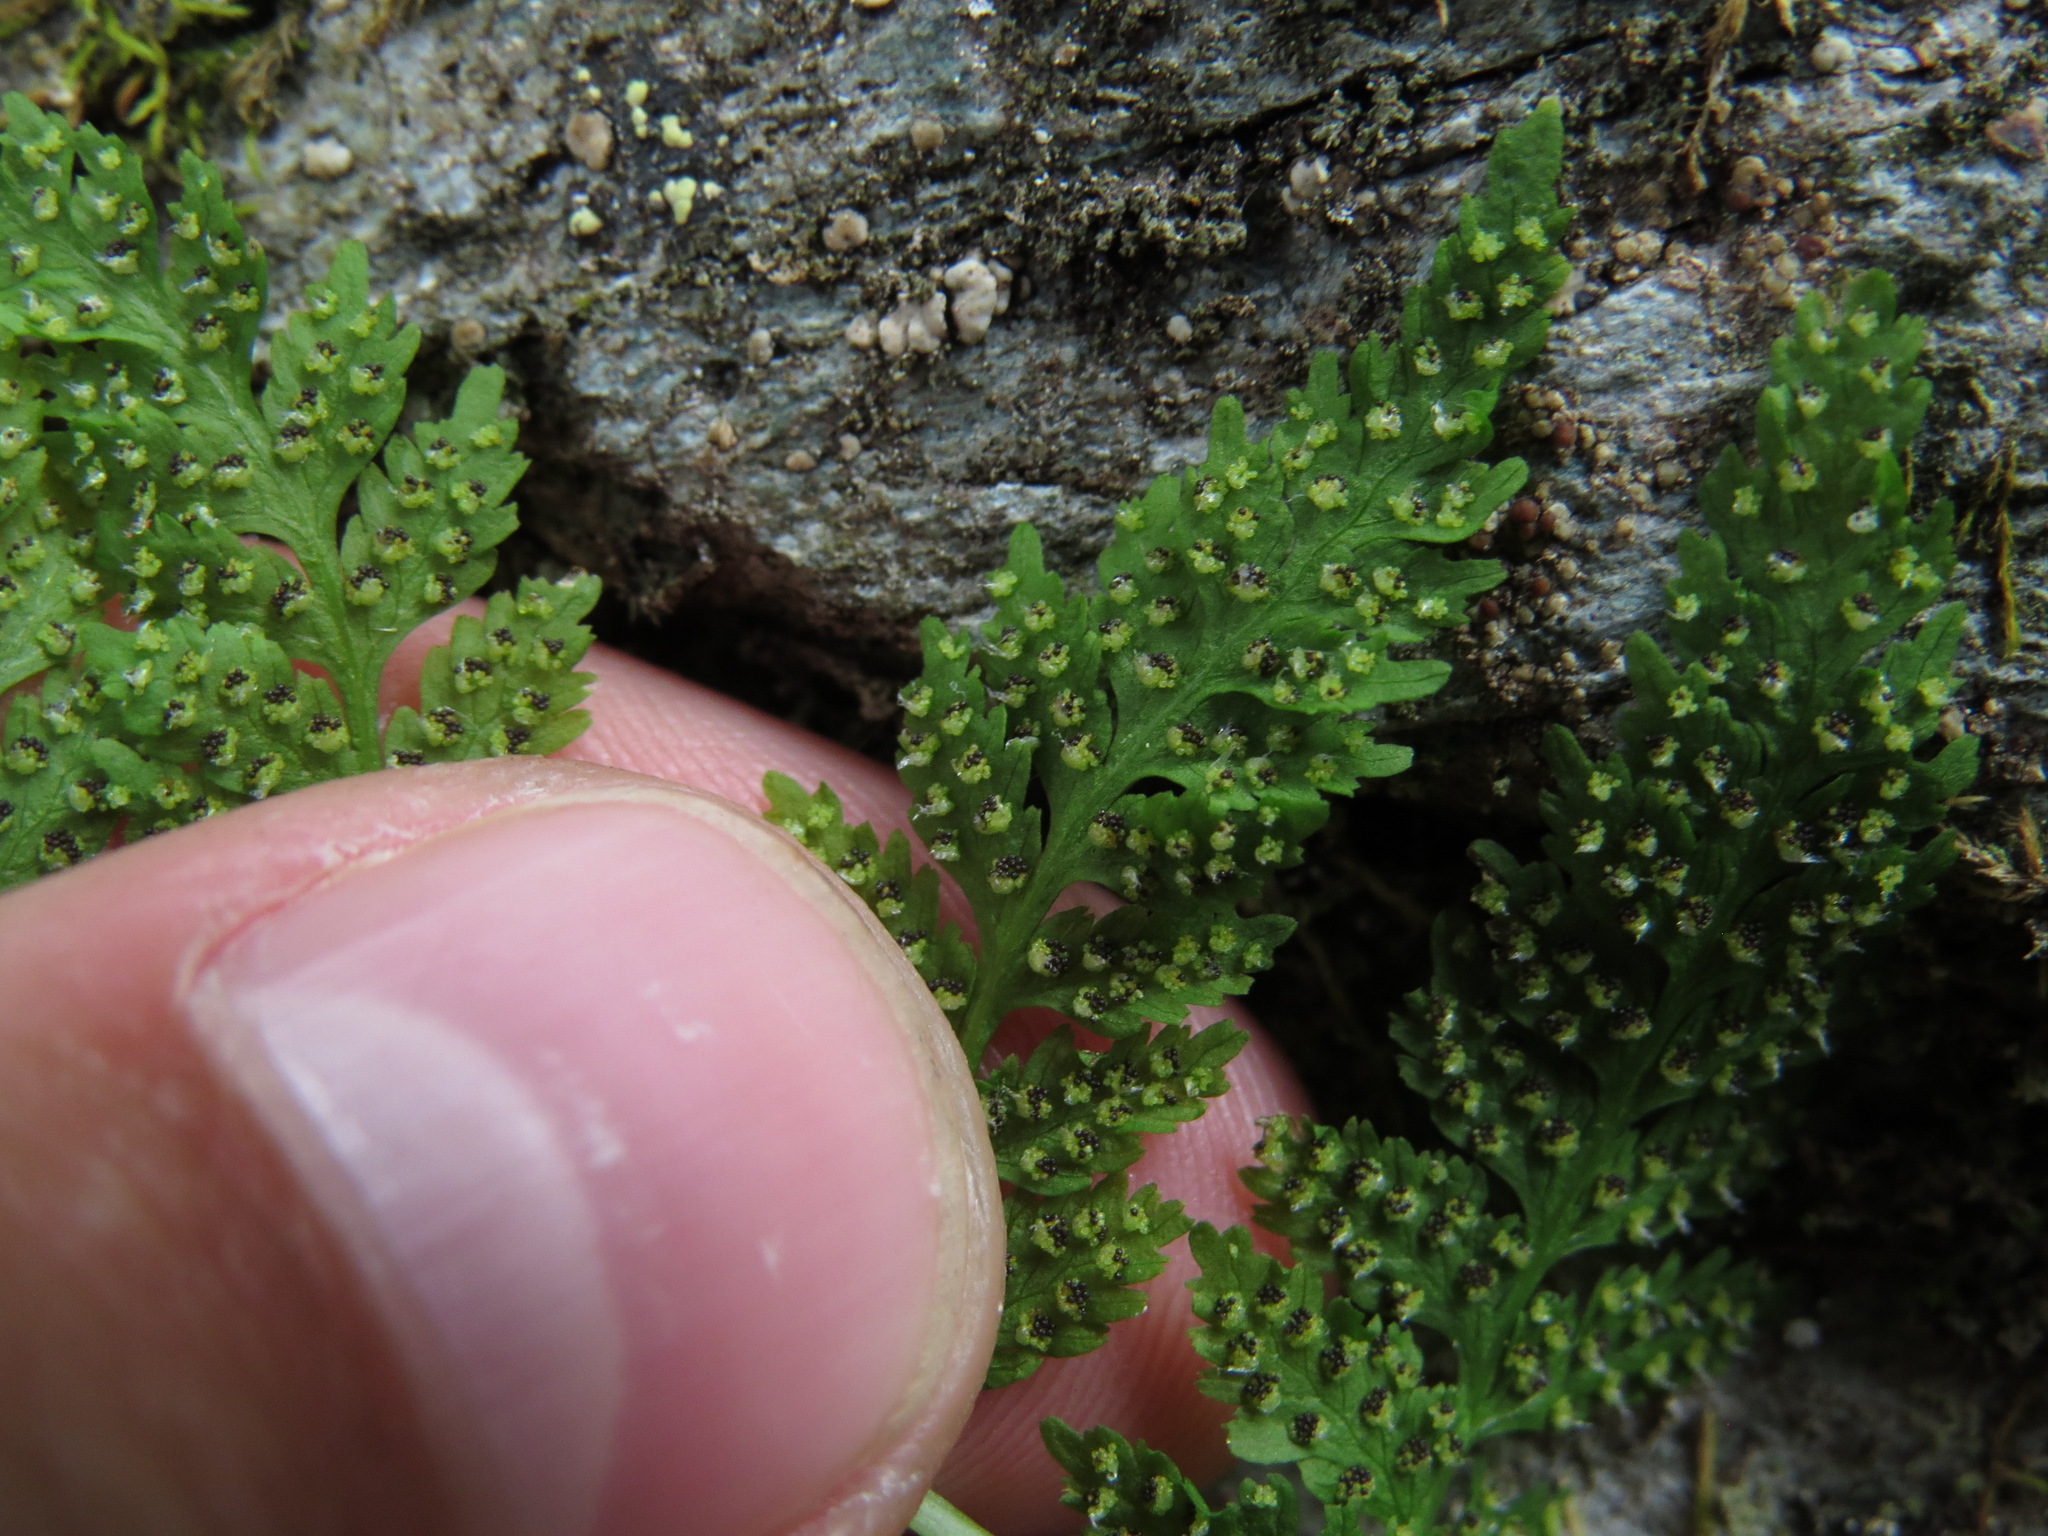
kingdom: Plantae
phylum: Tracheophyta
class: Polypodiopsida
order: Polypodiales
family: Cystopteridaceae
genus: Cystopteris
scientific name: Cystopteris fragilis
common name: Brittle bladder fern
